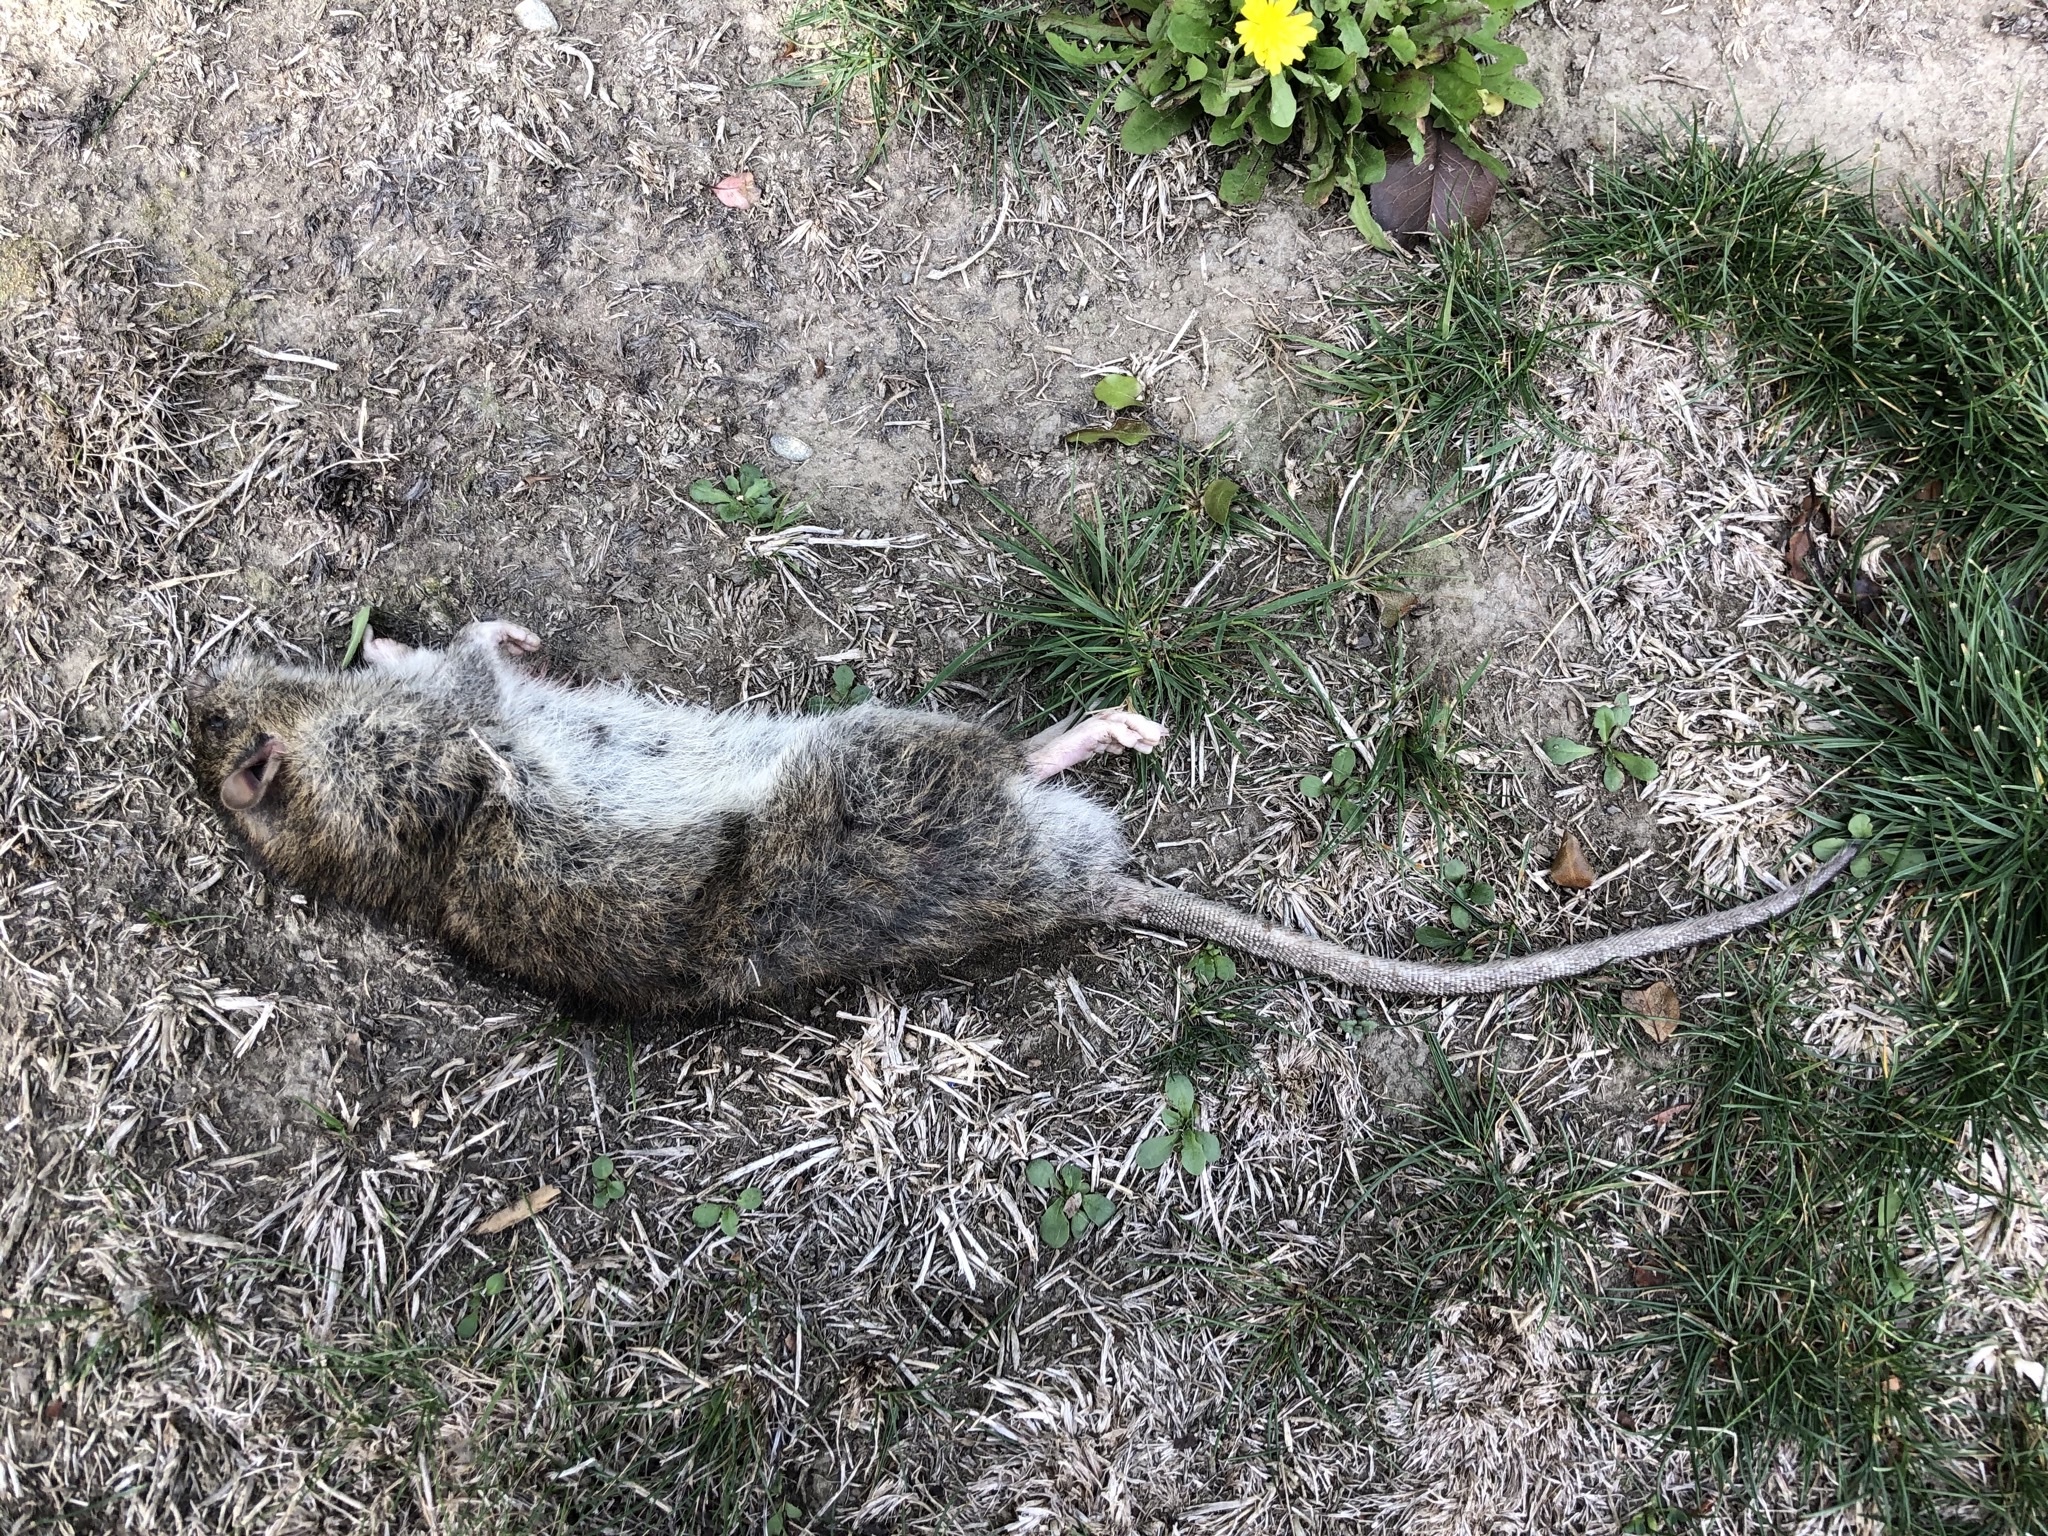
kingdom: Animalia
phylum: Chordata
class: Mammalia
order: Rodentia
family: Muridae
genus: Rattus
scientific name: Rattus norvegicus
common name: Brown rat
